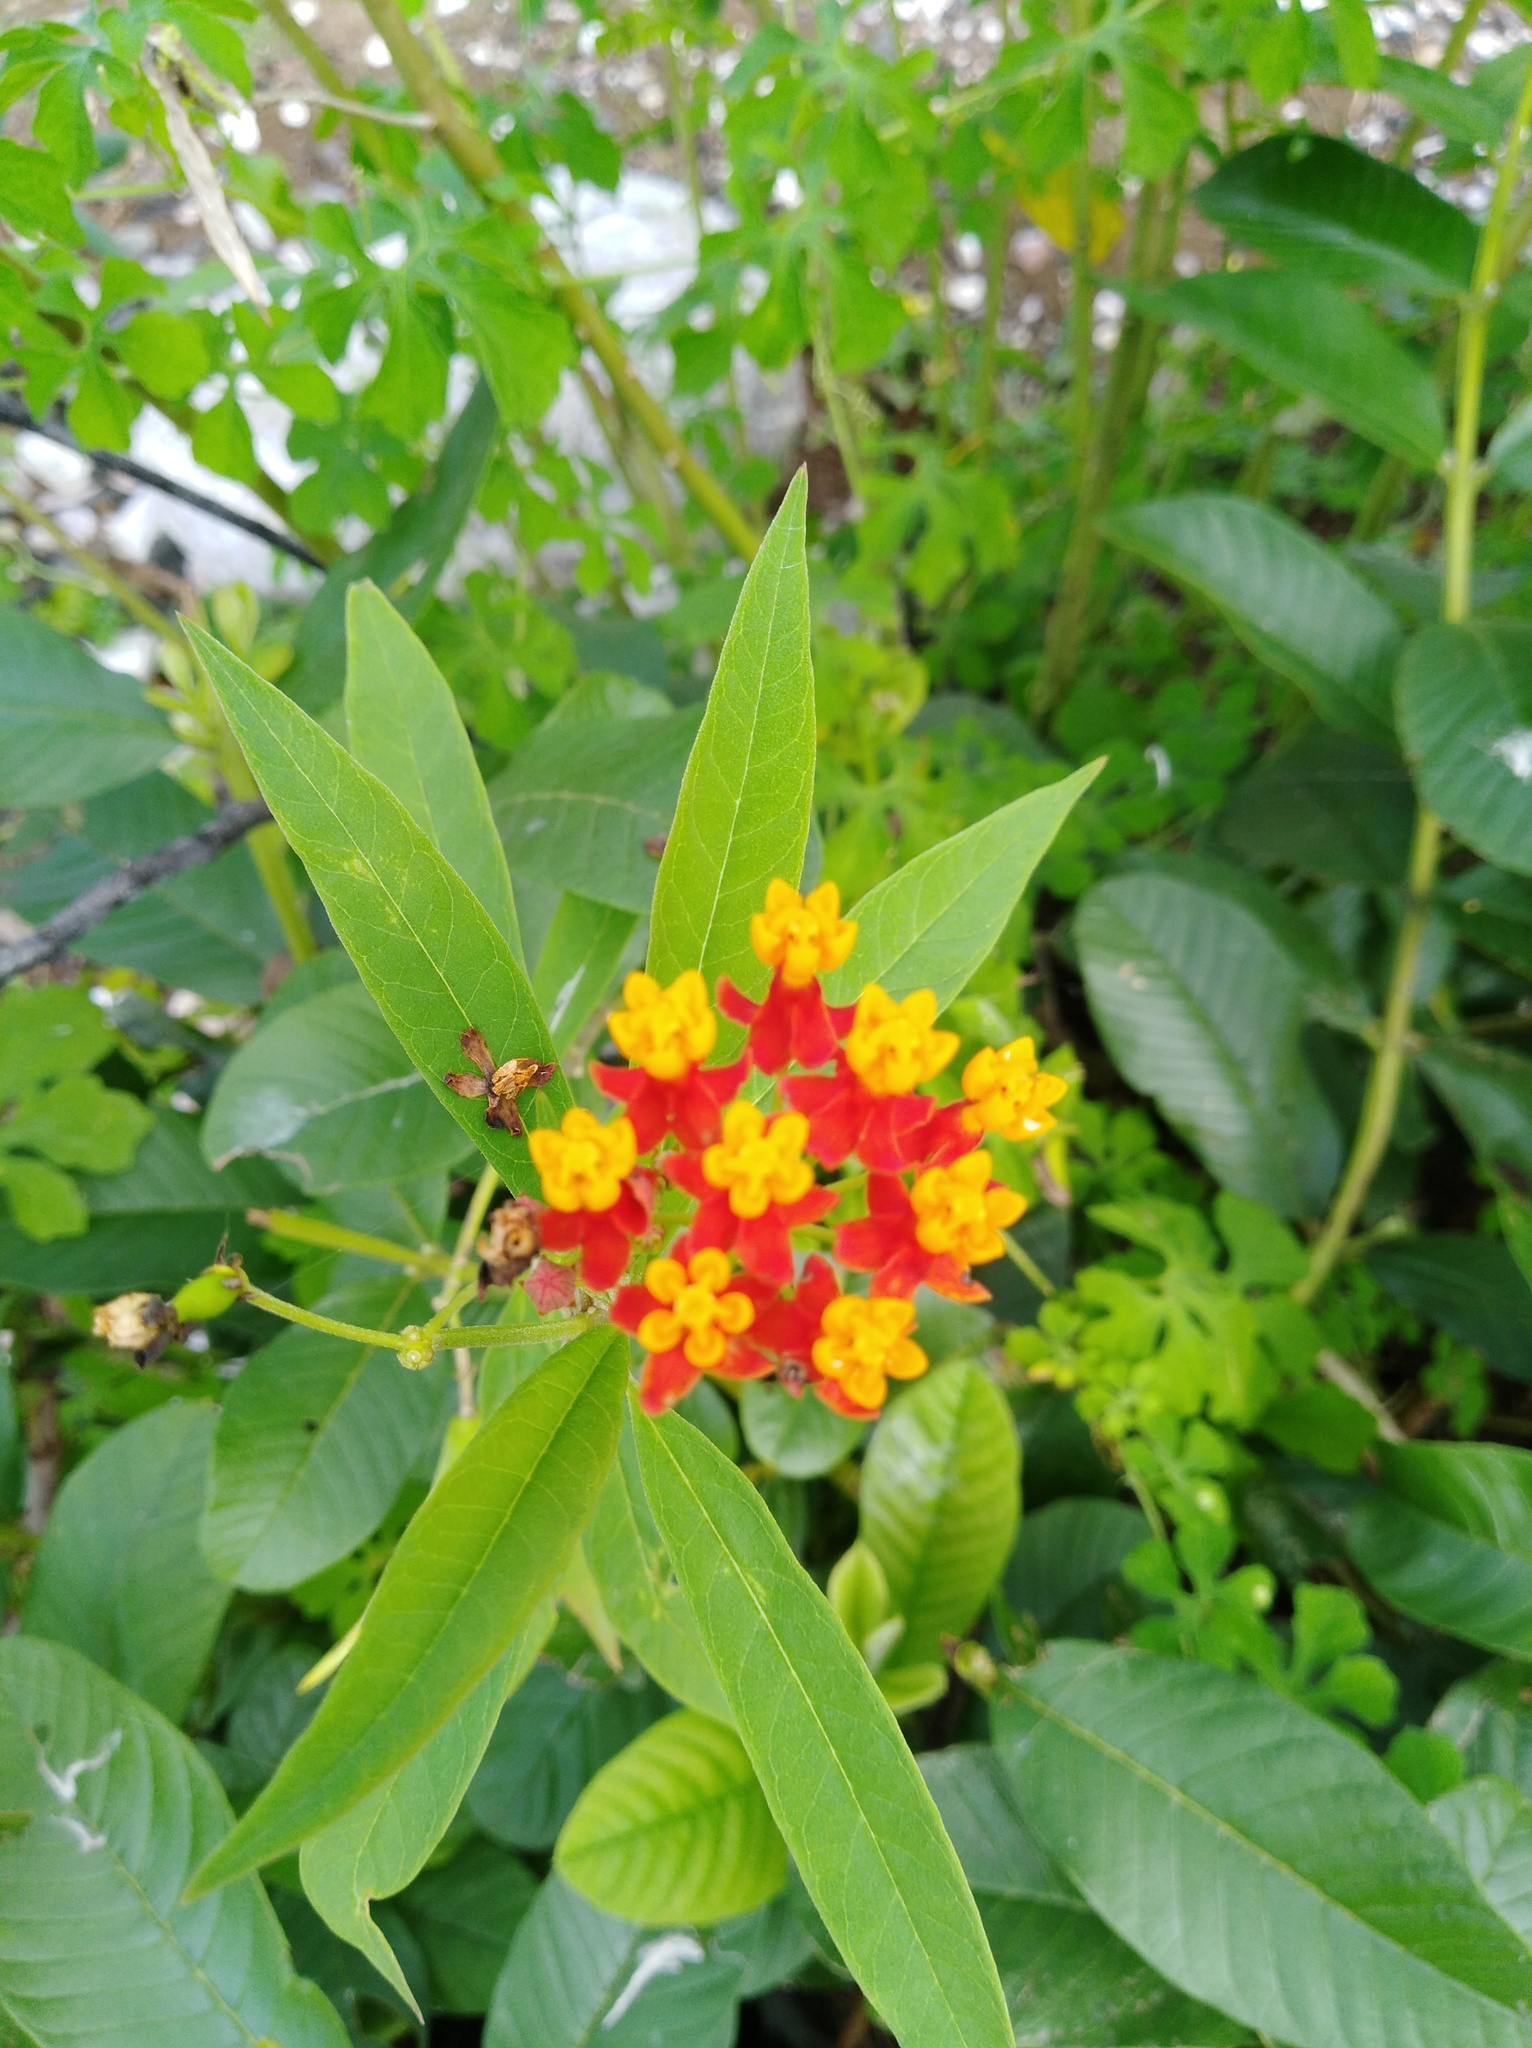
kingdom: Plantae
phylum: Tracheophyta
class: Magnoliopsida
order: Gentianales
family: Apocynaceae
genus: Asclepias
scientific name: Asclepias curassavica
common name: Bloodflower
